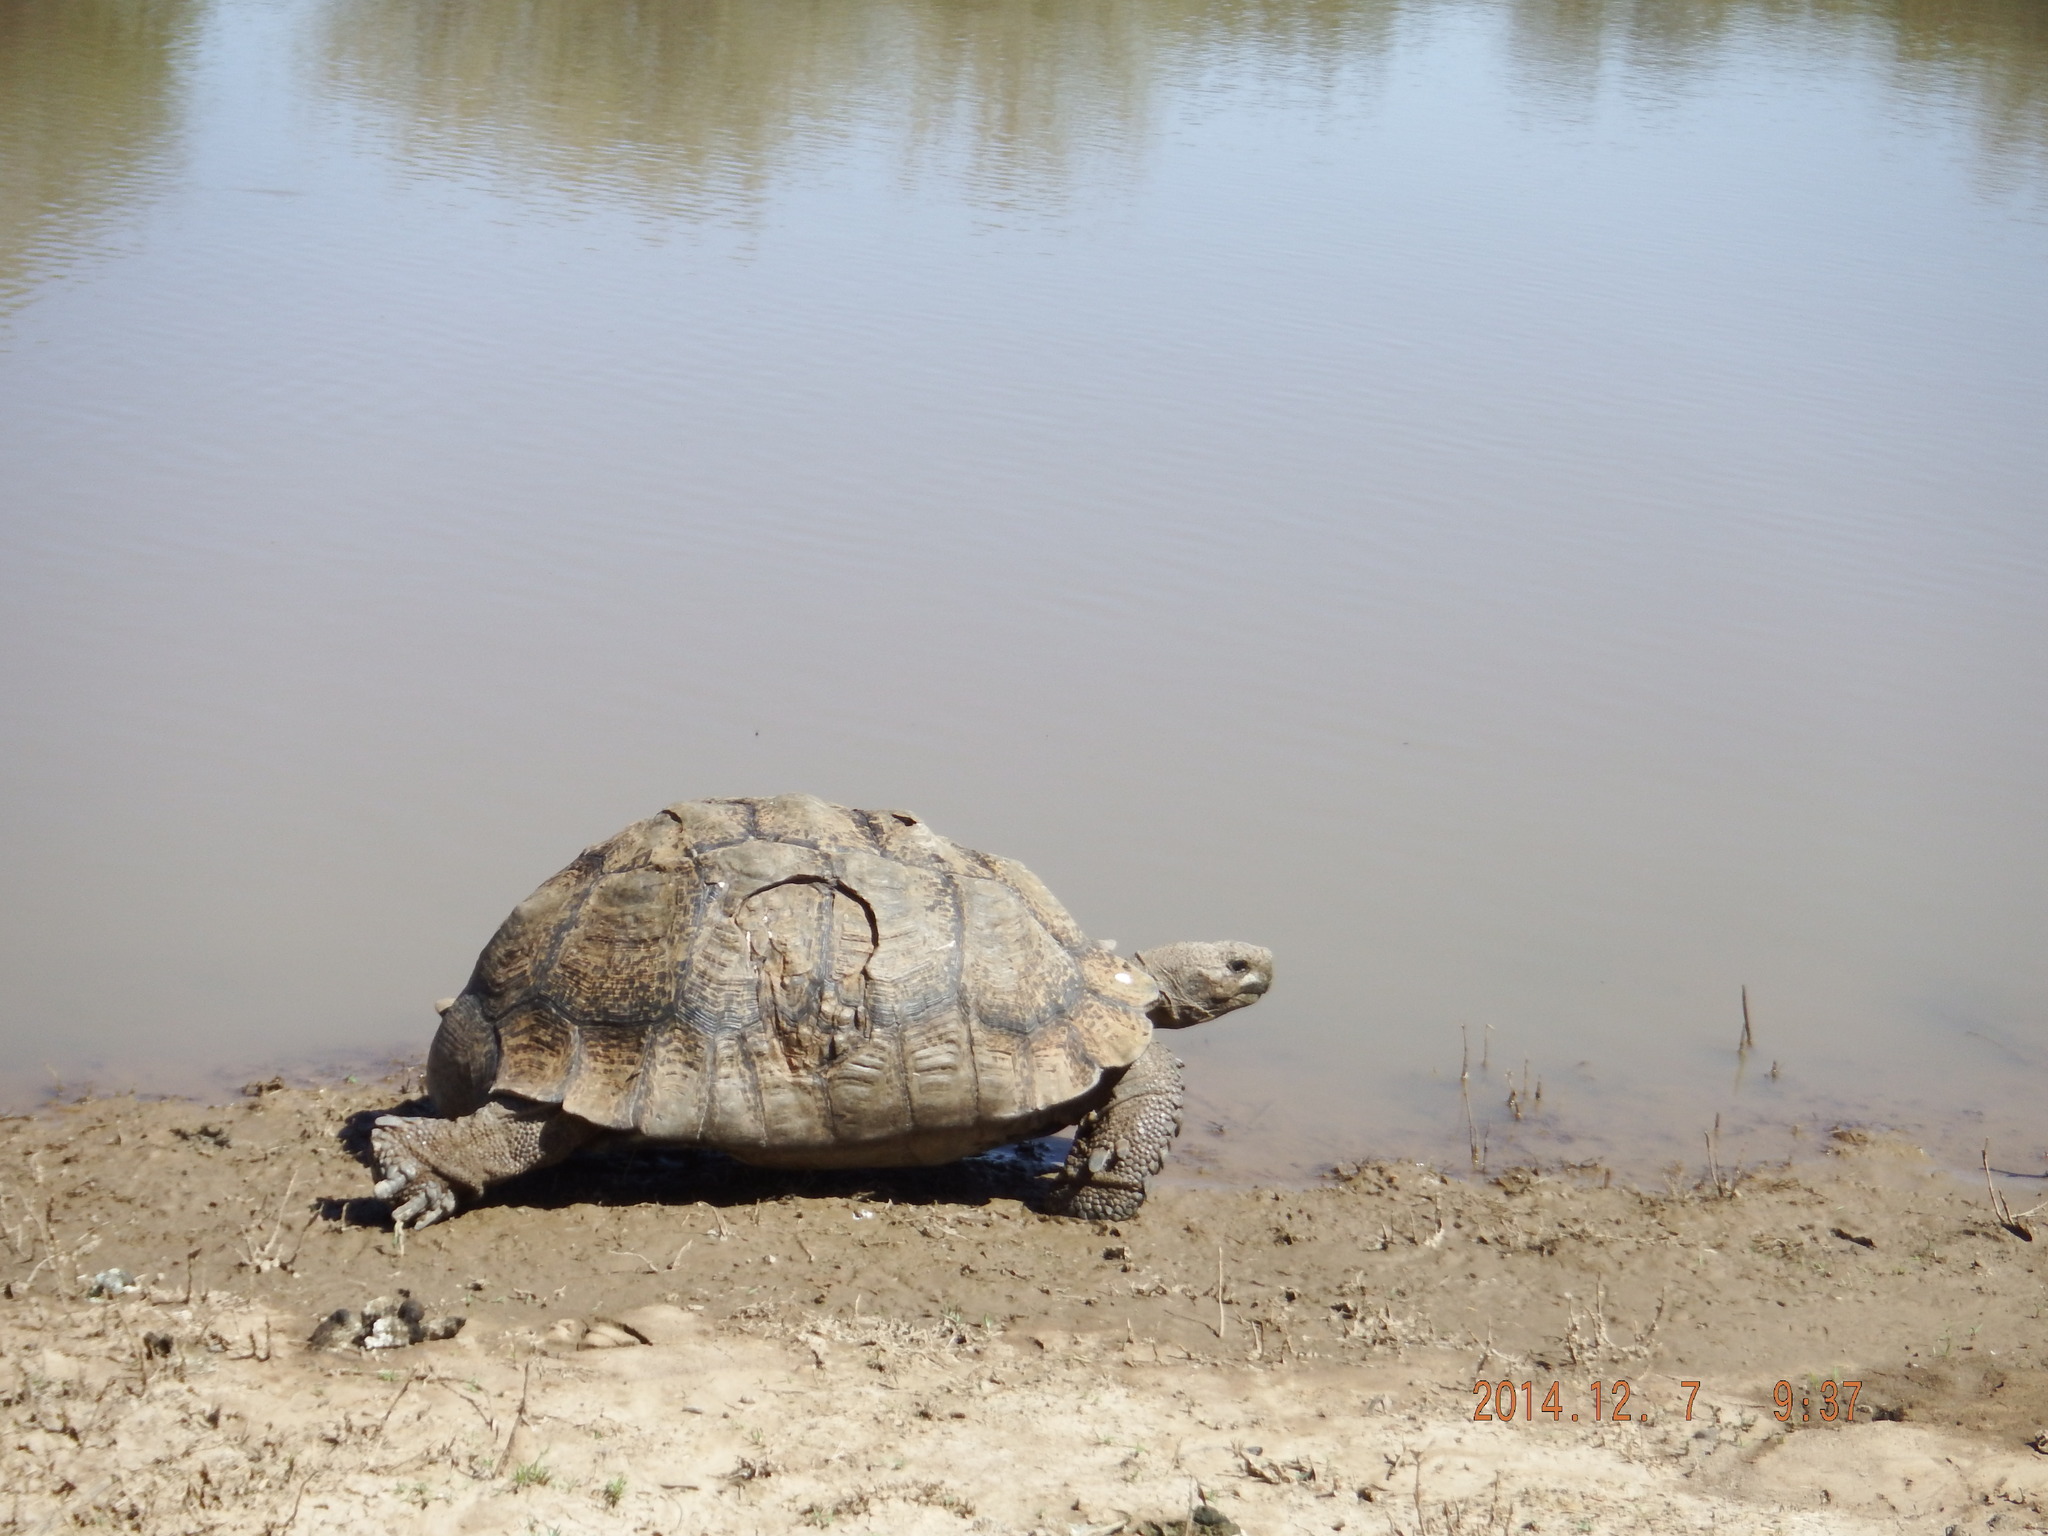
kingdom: Animalia
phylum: Chordata
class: Testudines
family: Testudinidae
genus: Stigmochelys
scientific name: Stigmochelys pardalis
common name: Leopard tortoise
